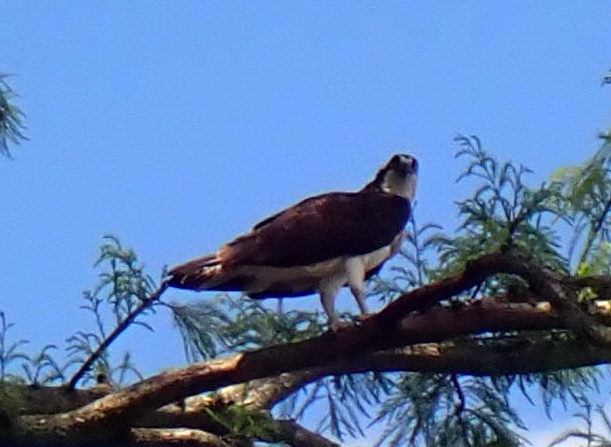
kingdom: Animalia
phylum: Chordata
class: Aves
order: Accipitriformes
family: Pandionidae
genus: Pandion
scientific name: Pandion haliaetus
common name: Osprey
